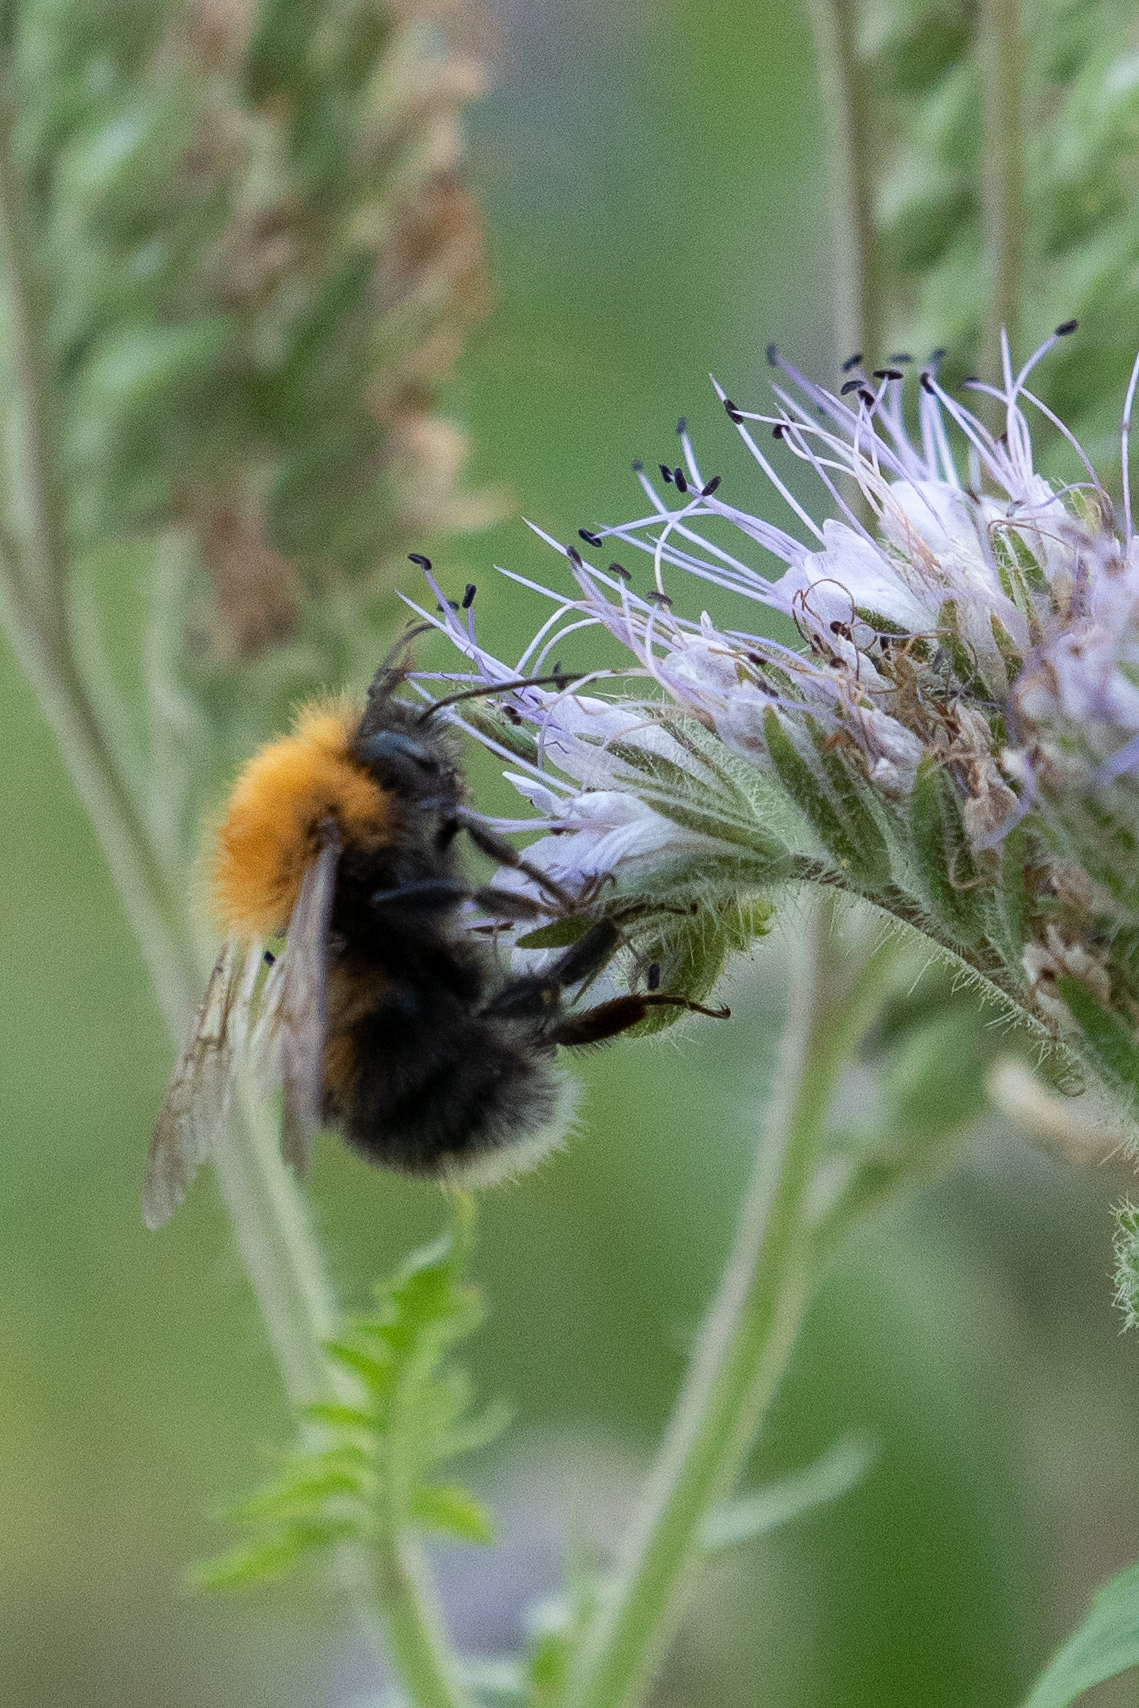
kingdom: Animalia
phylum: Arthropoda
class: Insecta
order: Hymenoptera
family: Apidae
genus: Bombus
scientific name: Bombus hypnorum
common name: New garden bumblebee
